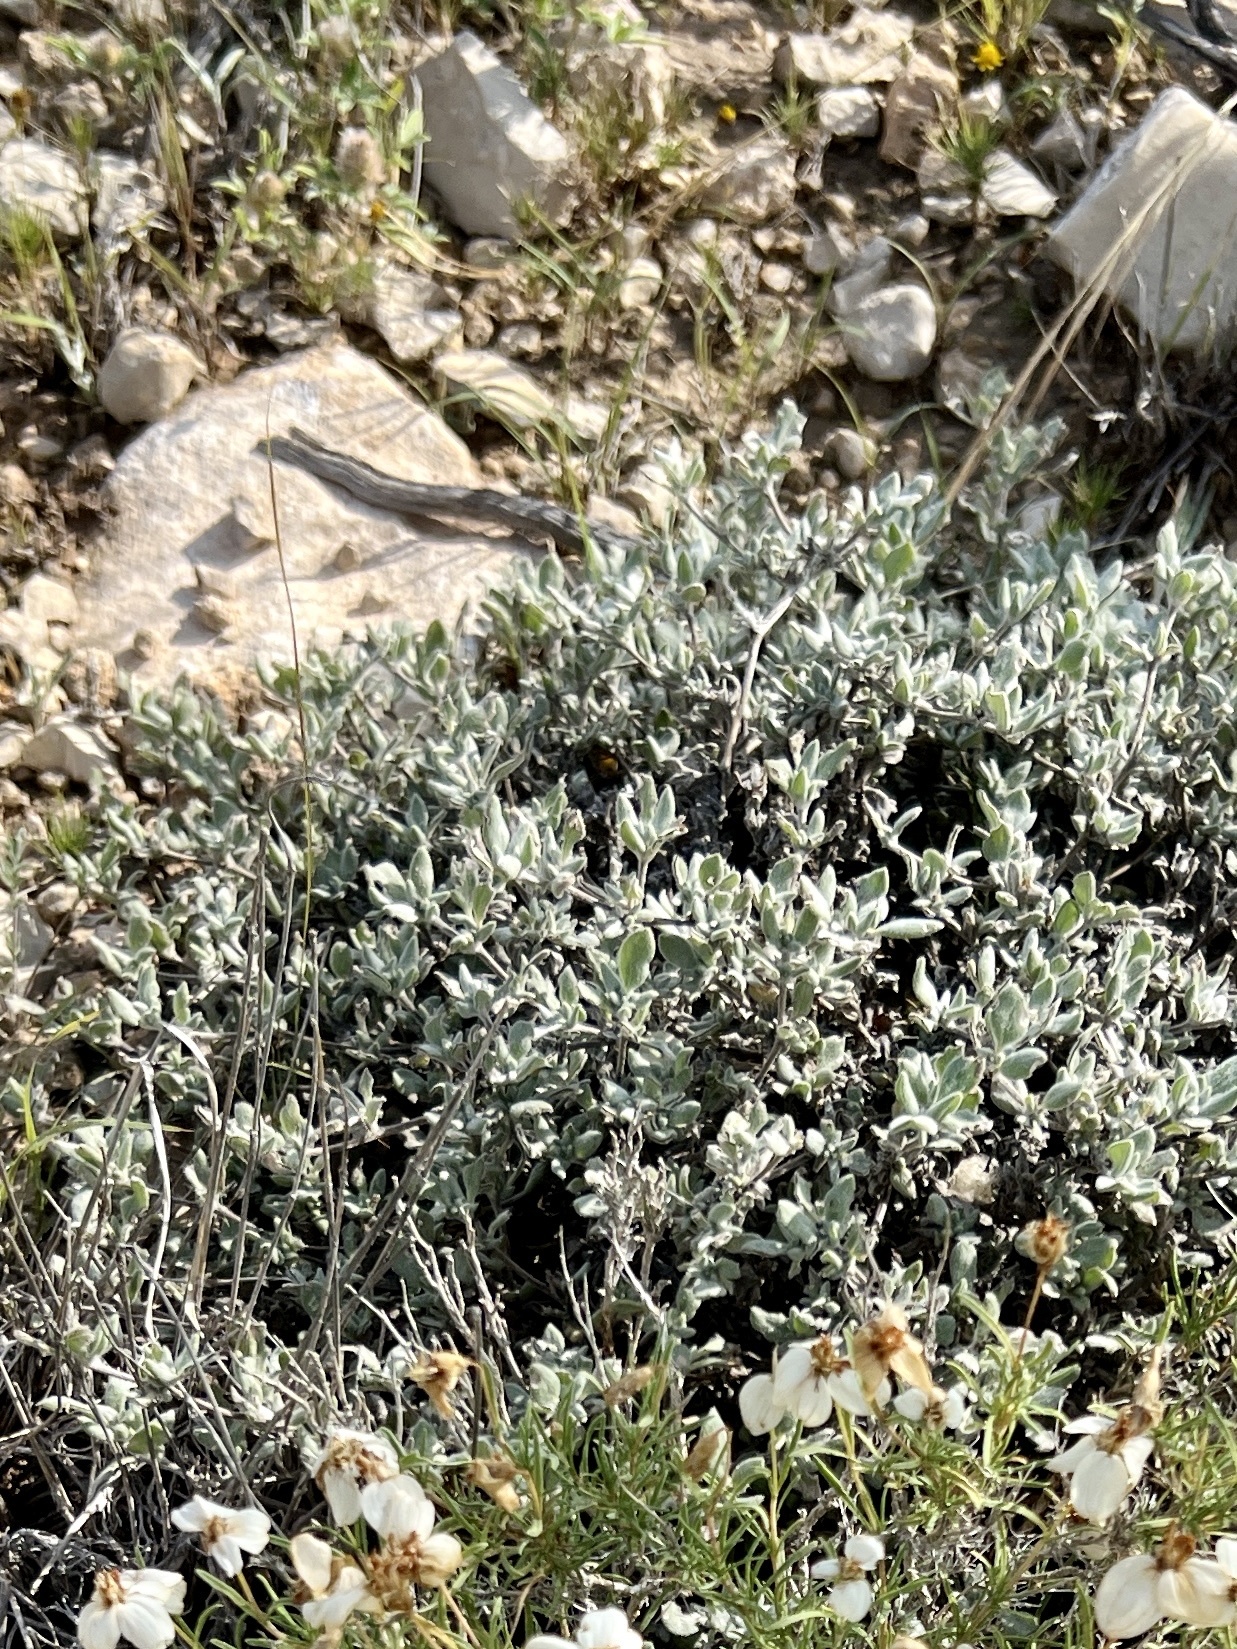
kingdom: Plantae
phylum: Tracheophyta
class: Magnoliopsida
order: Boraginales
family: Ehretiaceae
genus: Tiquilia
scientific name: Tiquilia canescens
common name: Hairy tiquilia
